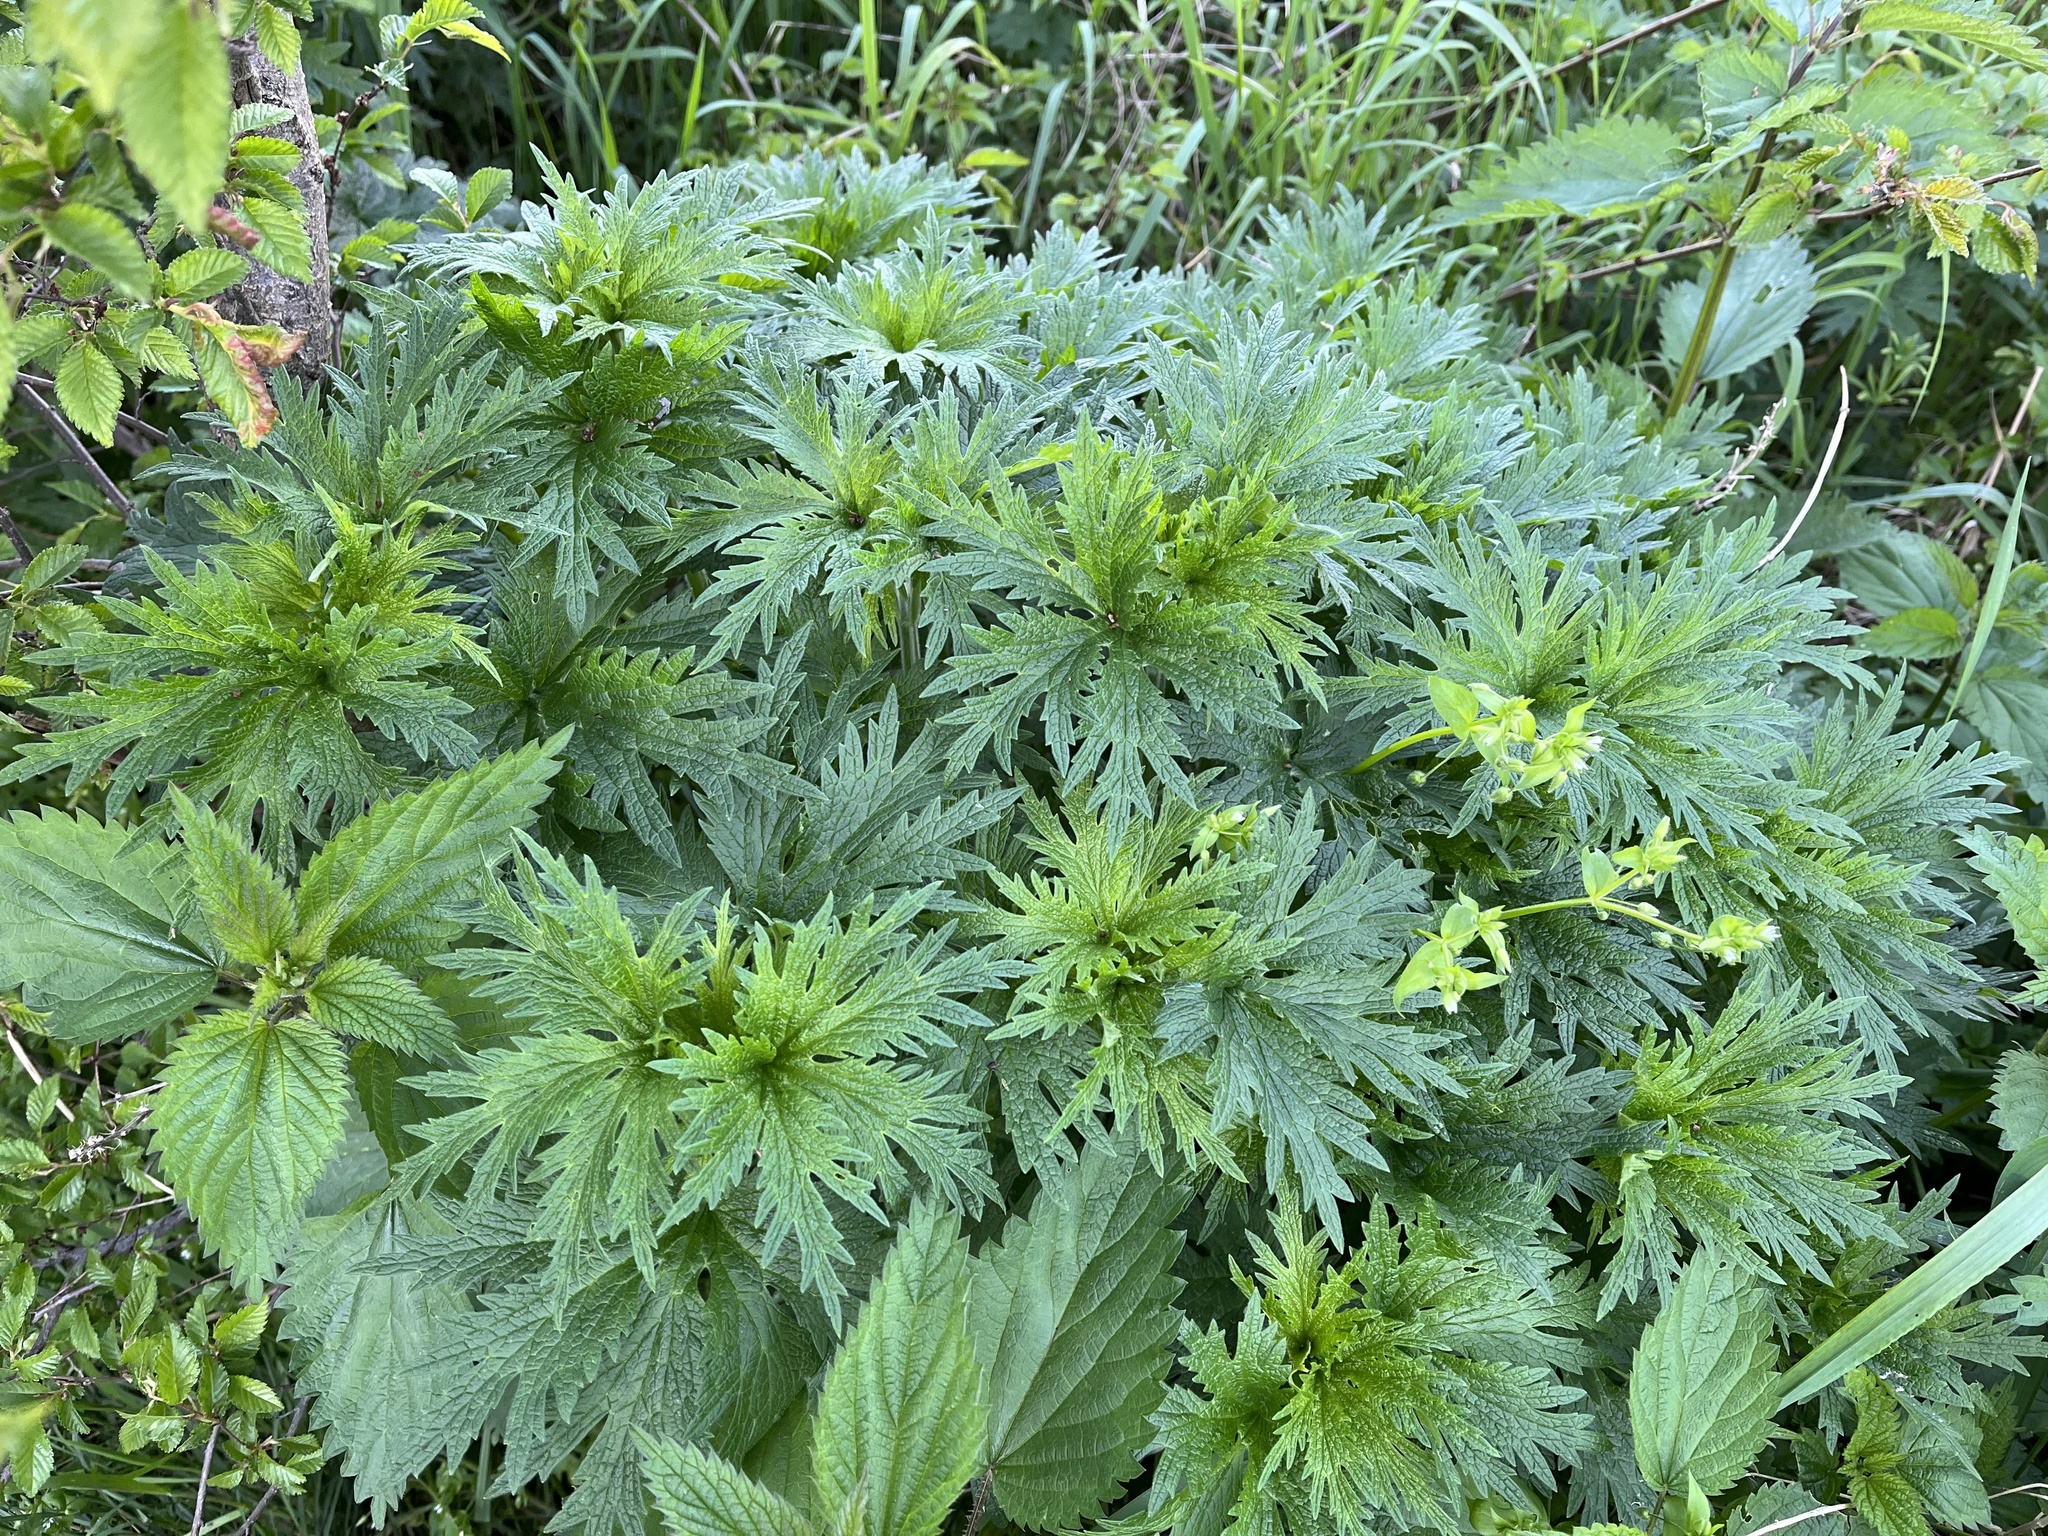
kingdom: Plantae
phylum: Tracheophyta
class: Magnoliopsida
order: Lamiales
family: Lamiaceae
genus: Leonurus
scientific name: Leonurus cardiaca
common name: Motherwort
